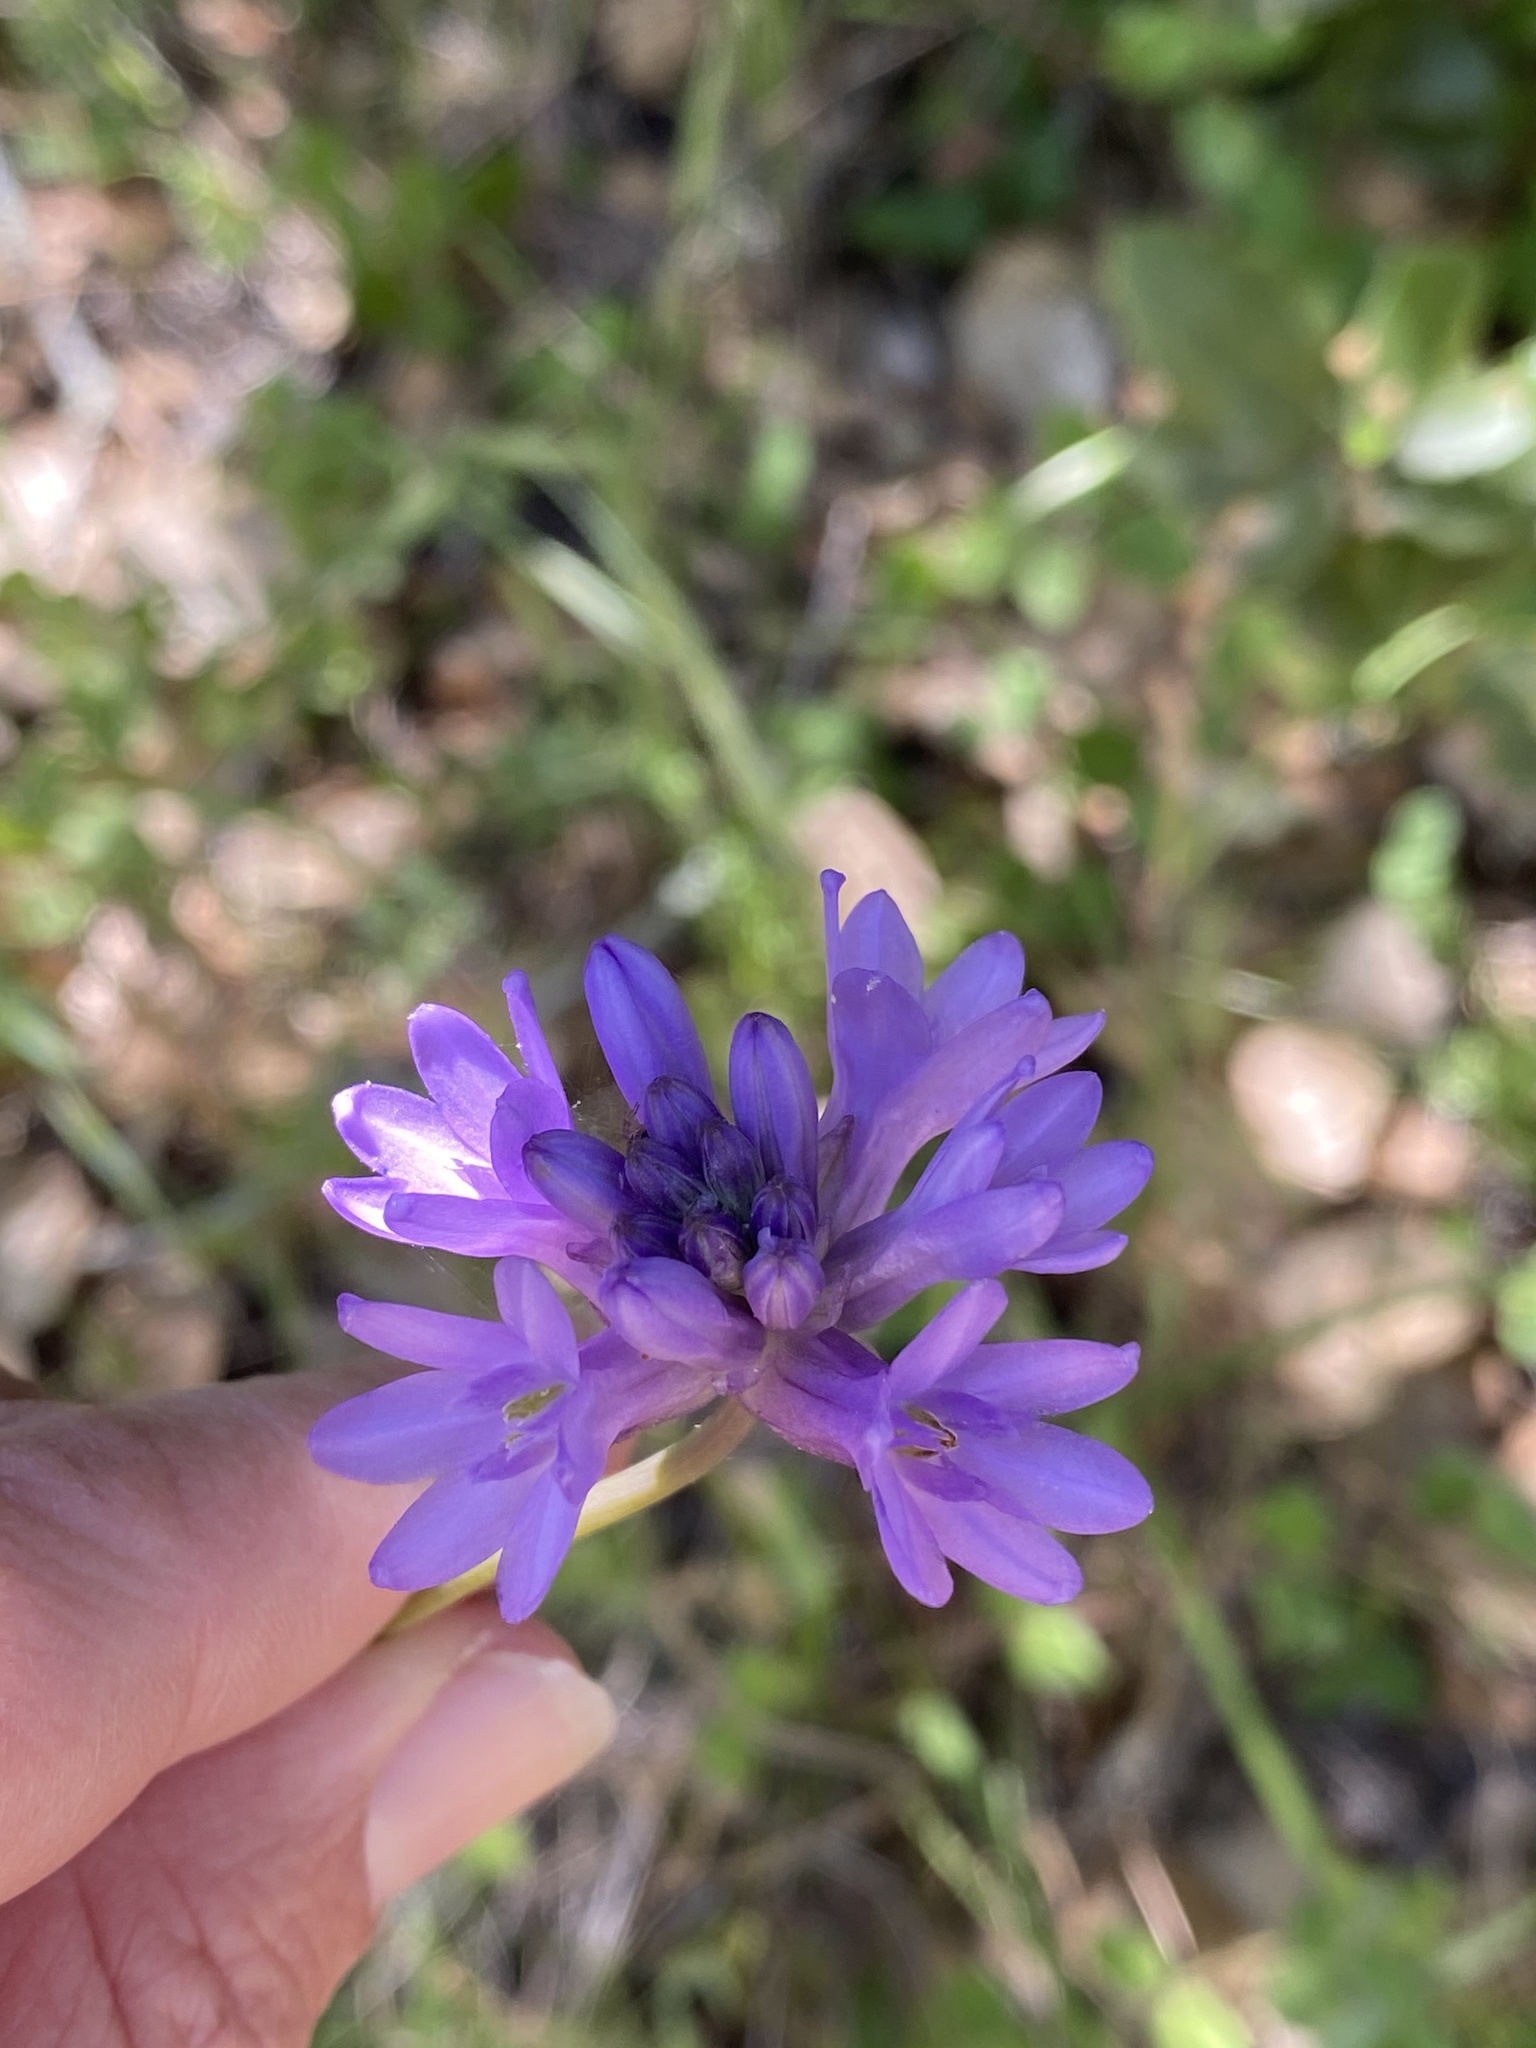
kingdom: Plantae
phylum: Tracheophyta
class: Liliopsida
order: Asparagales
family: Asparagaceae
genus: Dipterostemon
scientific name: Dipterostemon capitatus
